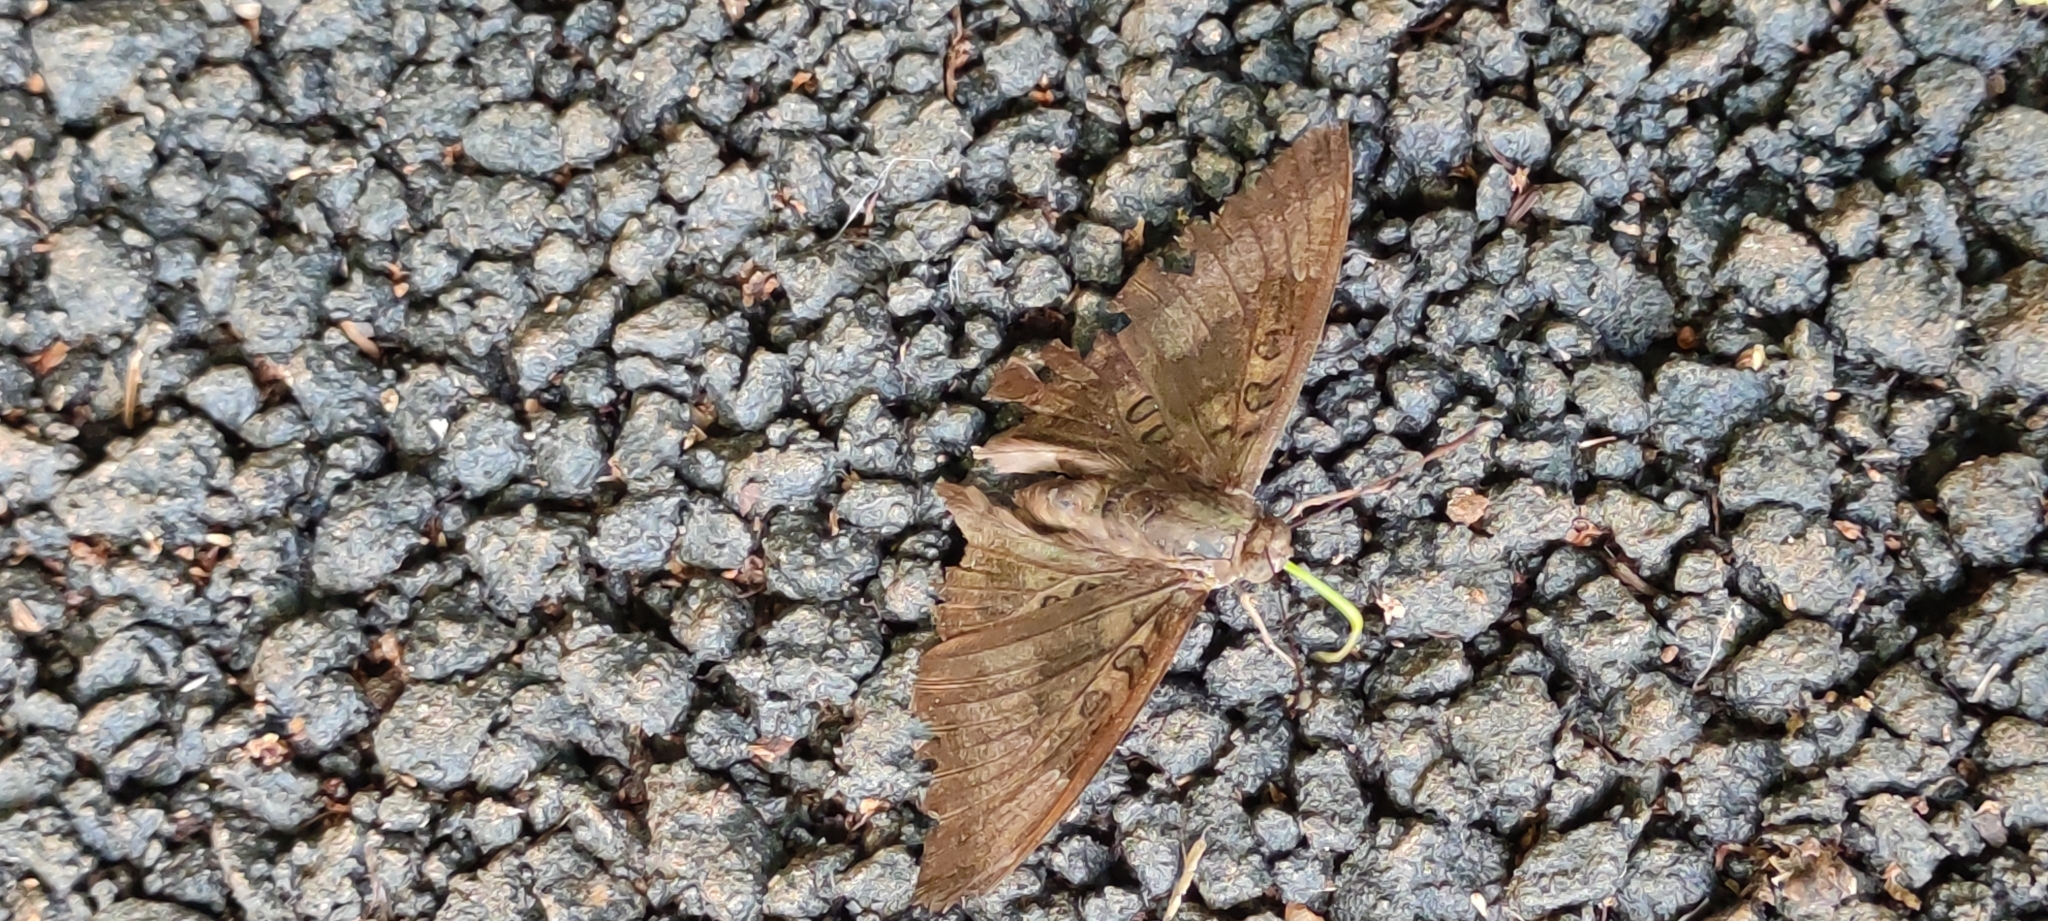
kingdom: Animalia
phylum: Arthropoda
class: Insecta
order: Lepidoptera
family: Nymphalidae
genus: Euthalia
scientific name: Euthalia aconthea
